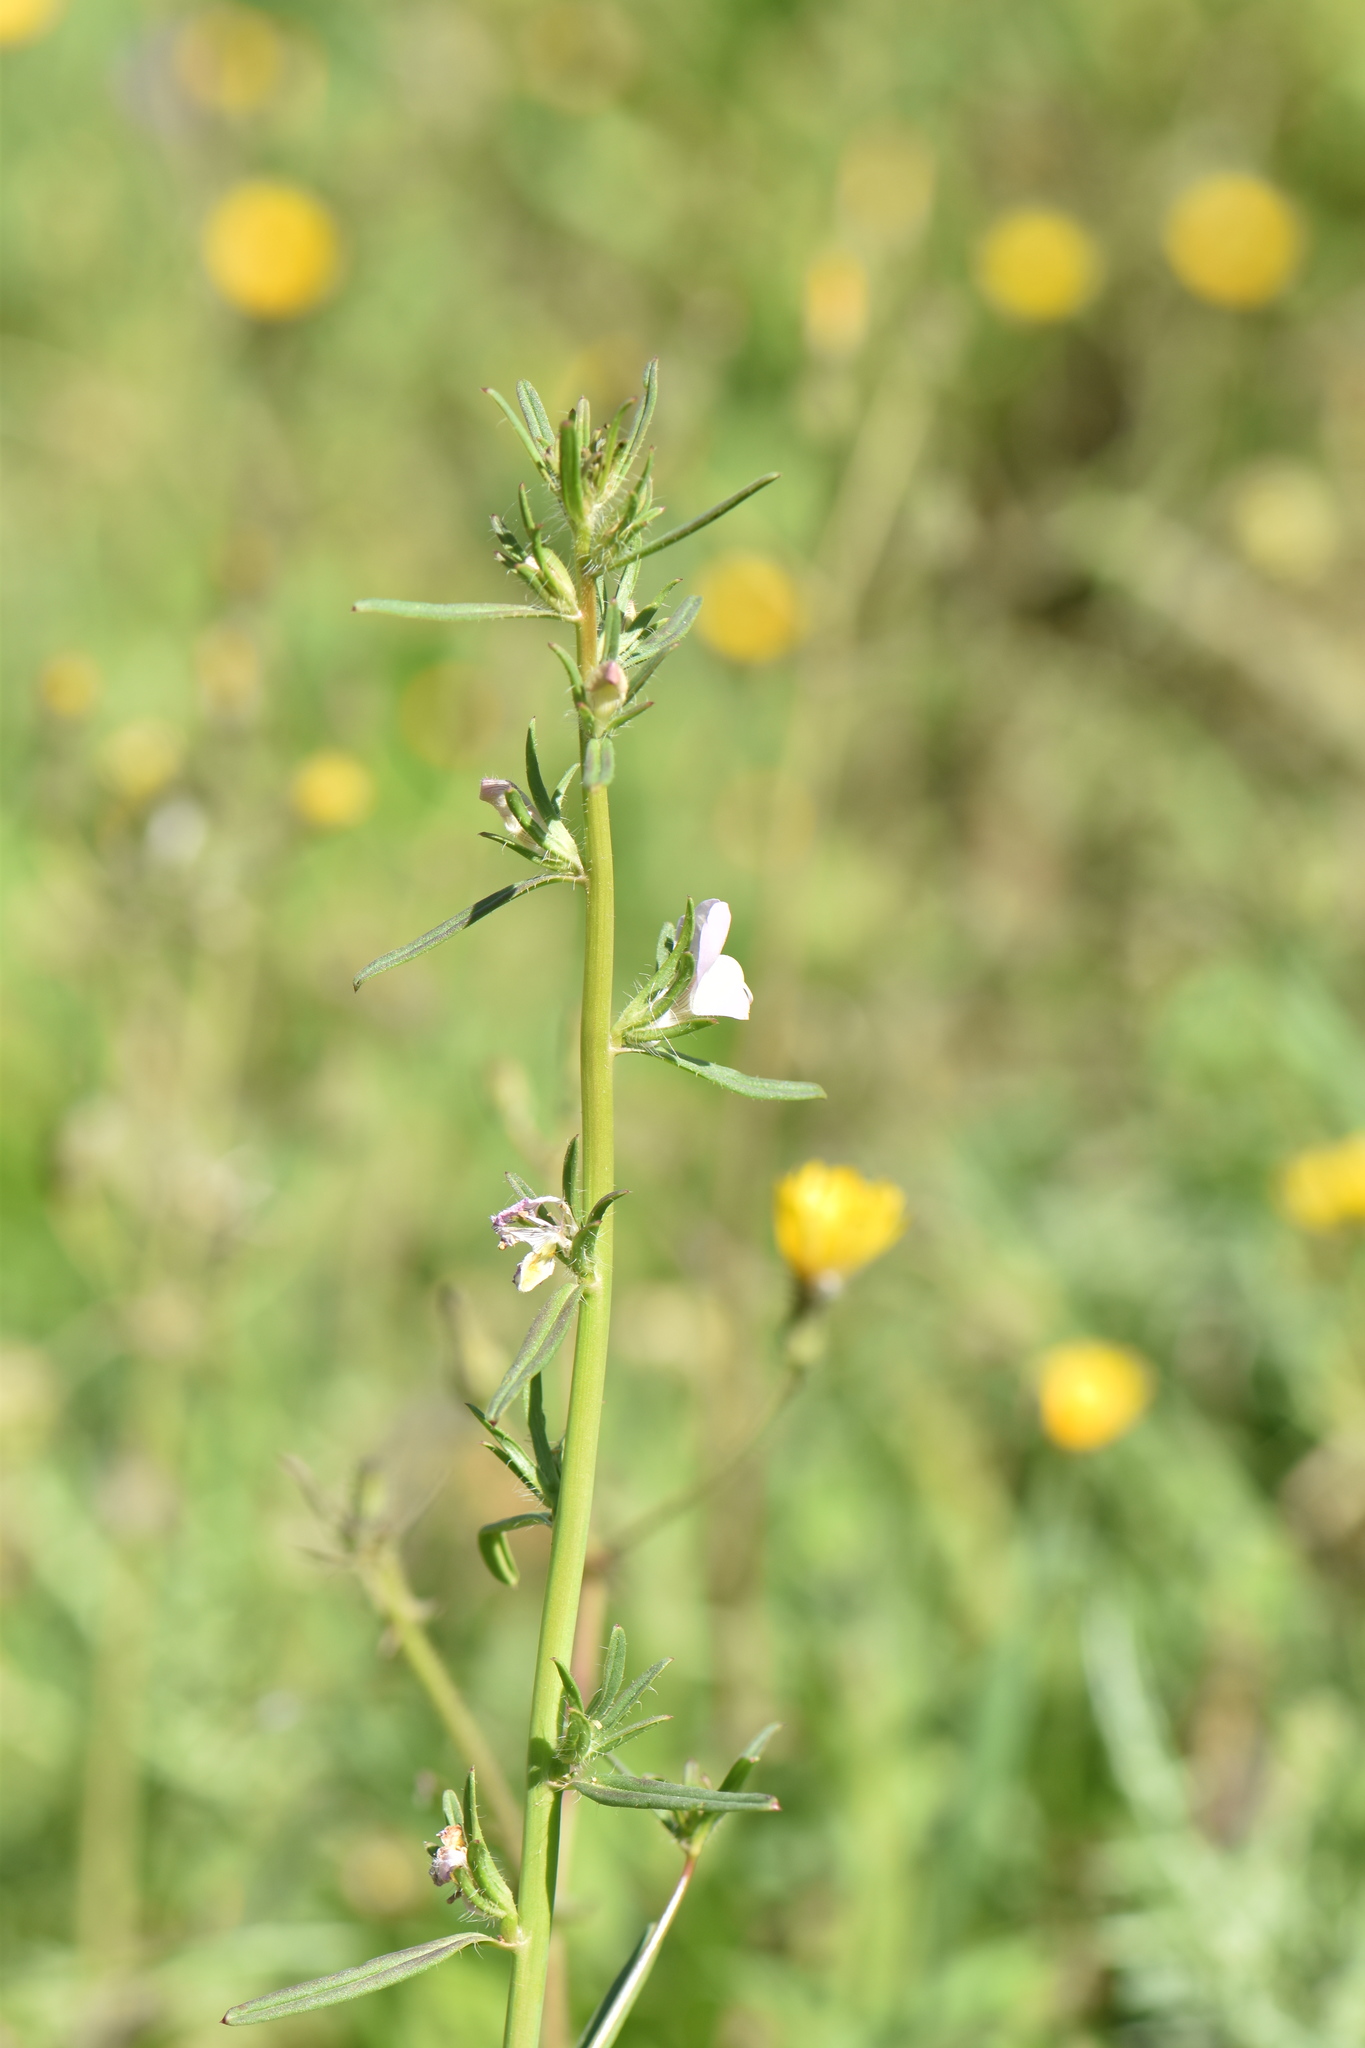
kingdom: Plantae
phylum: Tracheophyta
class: Magnoliopsida
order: Lamiales
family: Plantaginaceae
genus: Misopates
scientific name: Misopates calycinum
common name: Pale weasel's-snout
